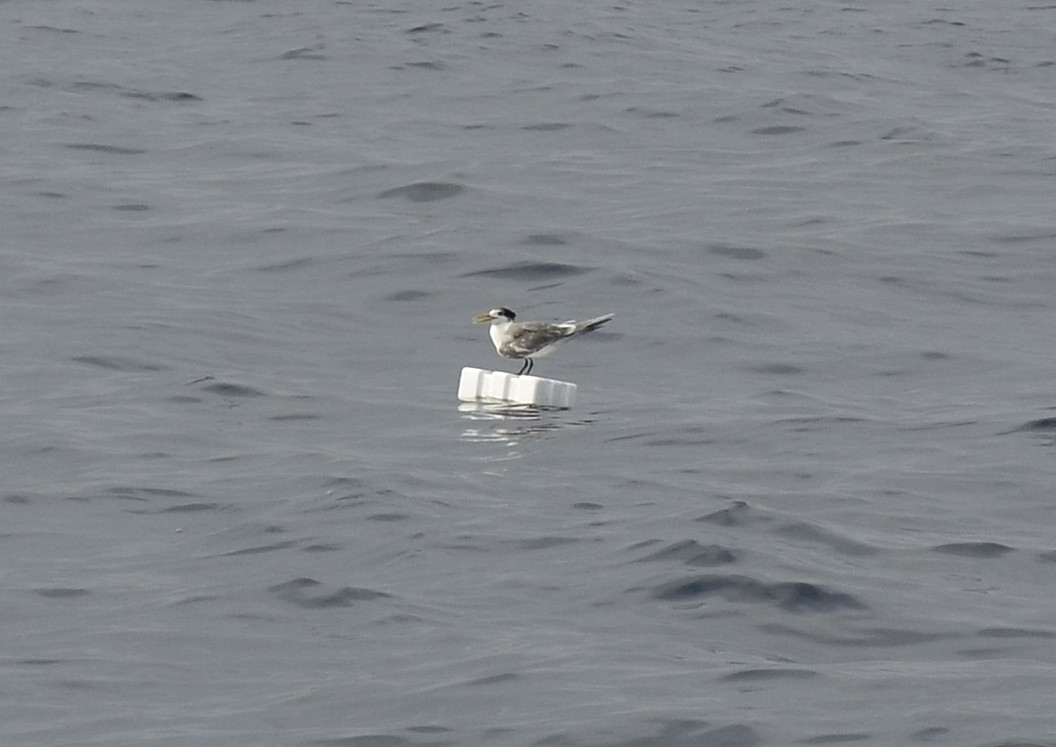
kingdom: Animalia
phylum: Chordata
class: Aves
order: Charadriiformes
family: Laridae
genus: Thalasseus
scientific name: Thalasseus bergii
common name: Greater crested tern
